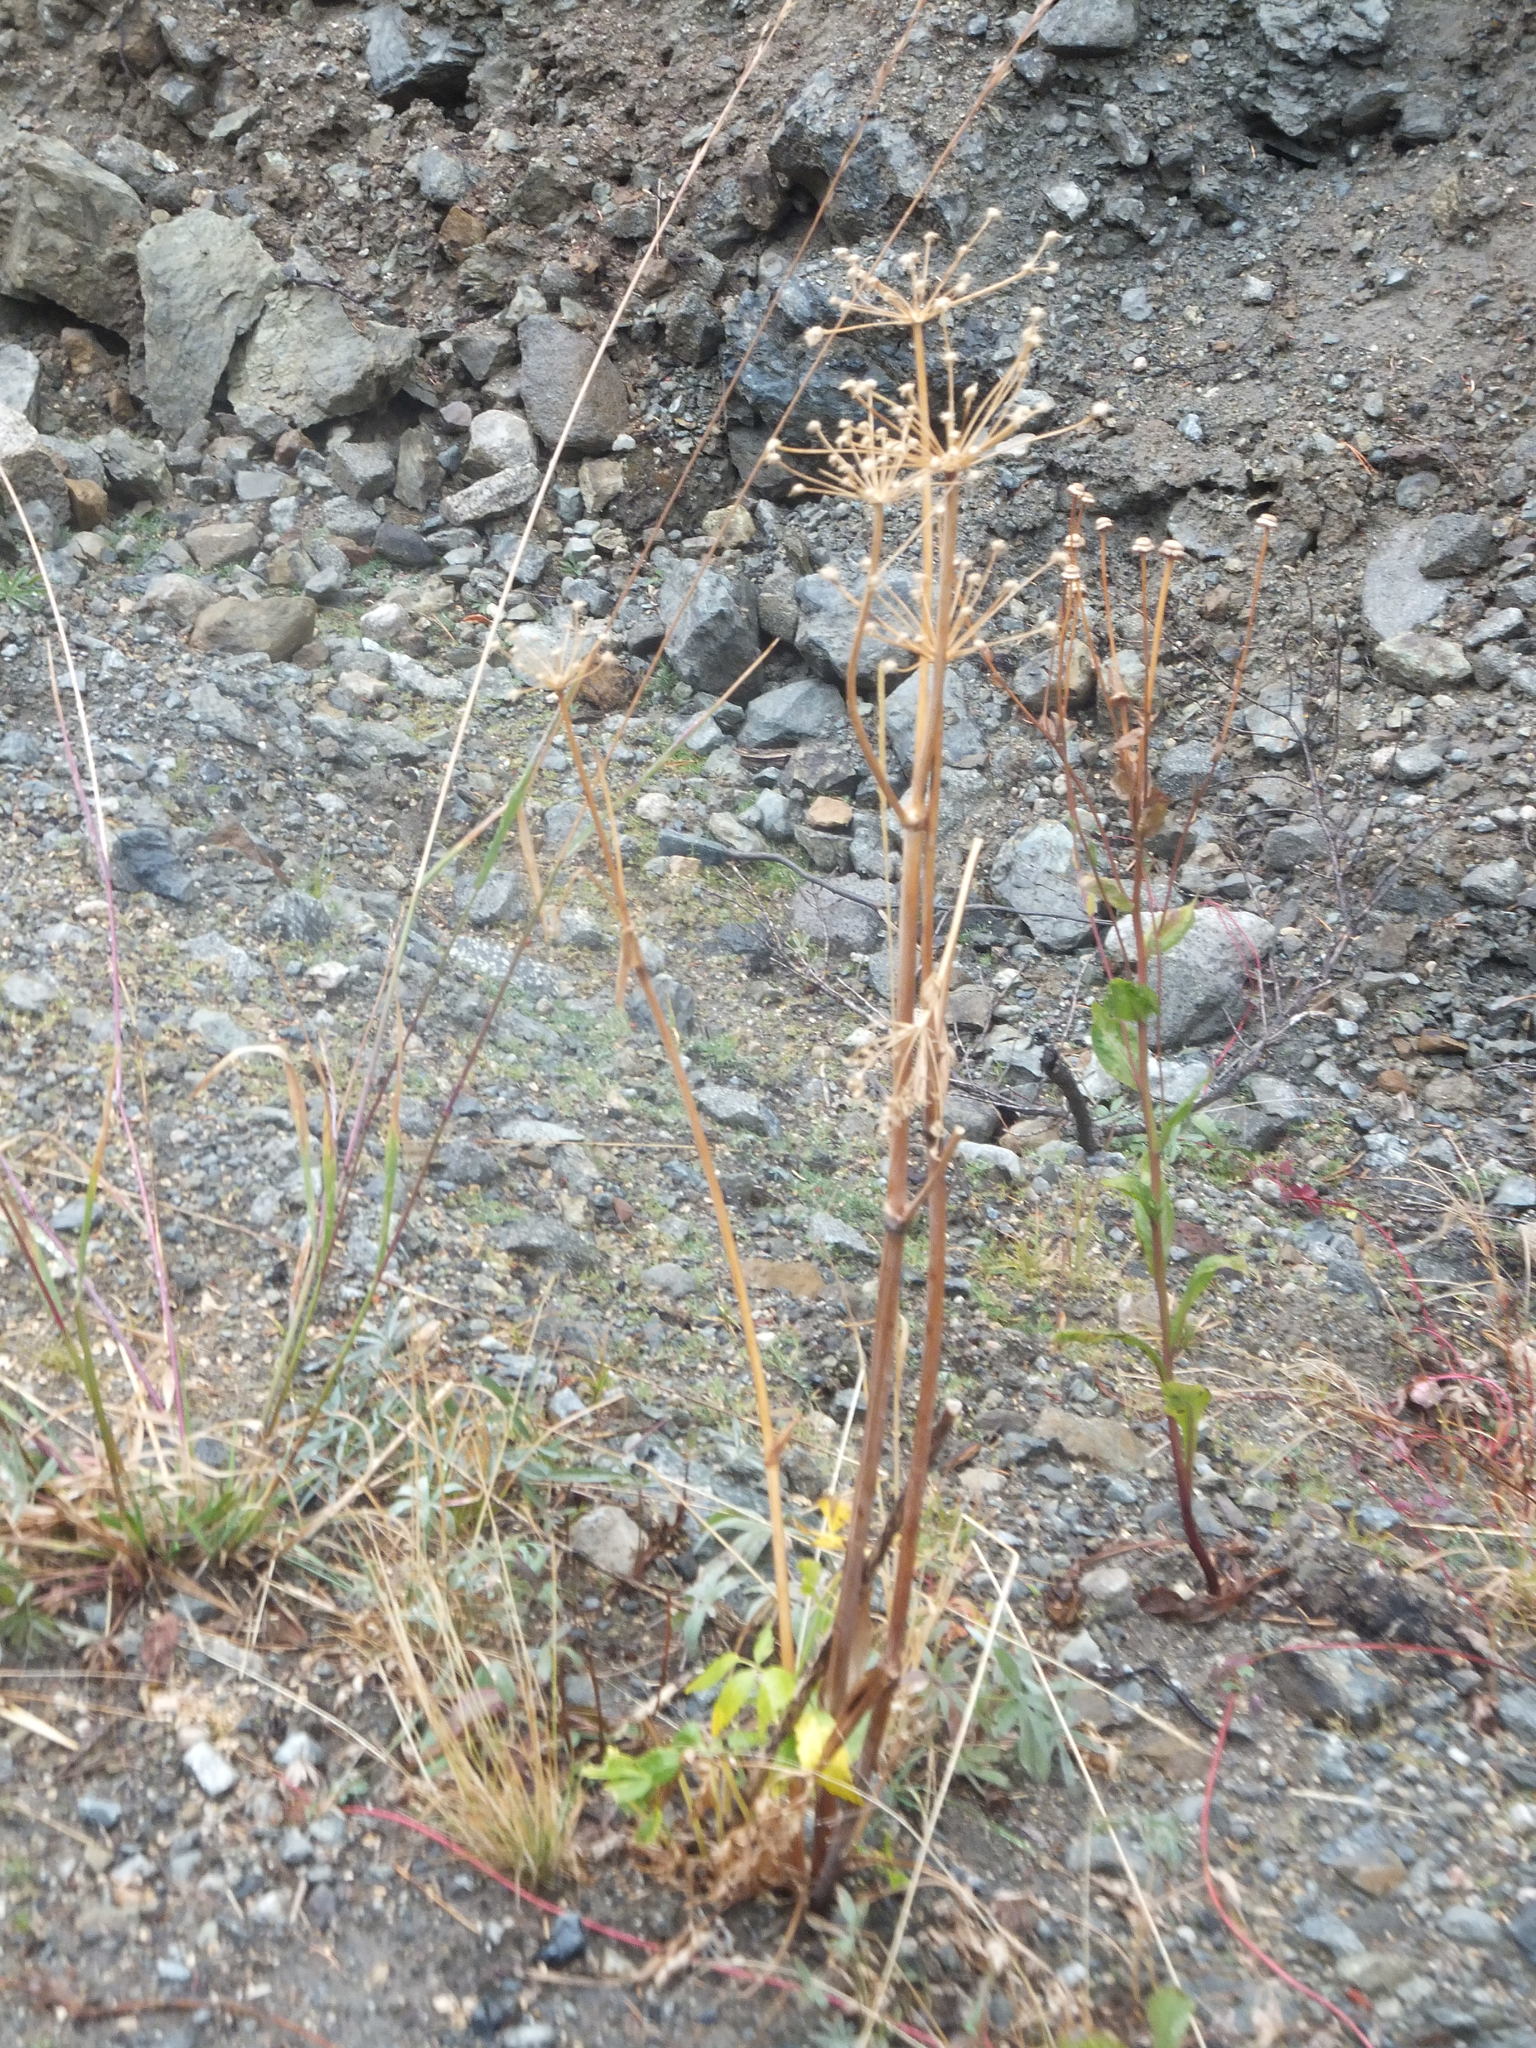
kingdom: Plantae
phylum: Tracheophyta
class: Magnoliopsida
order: Apiales
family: Apiaceae
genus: Angelica
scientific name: Angelica arguta
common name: Lyall's angelica
